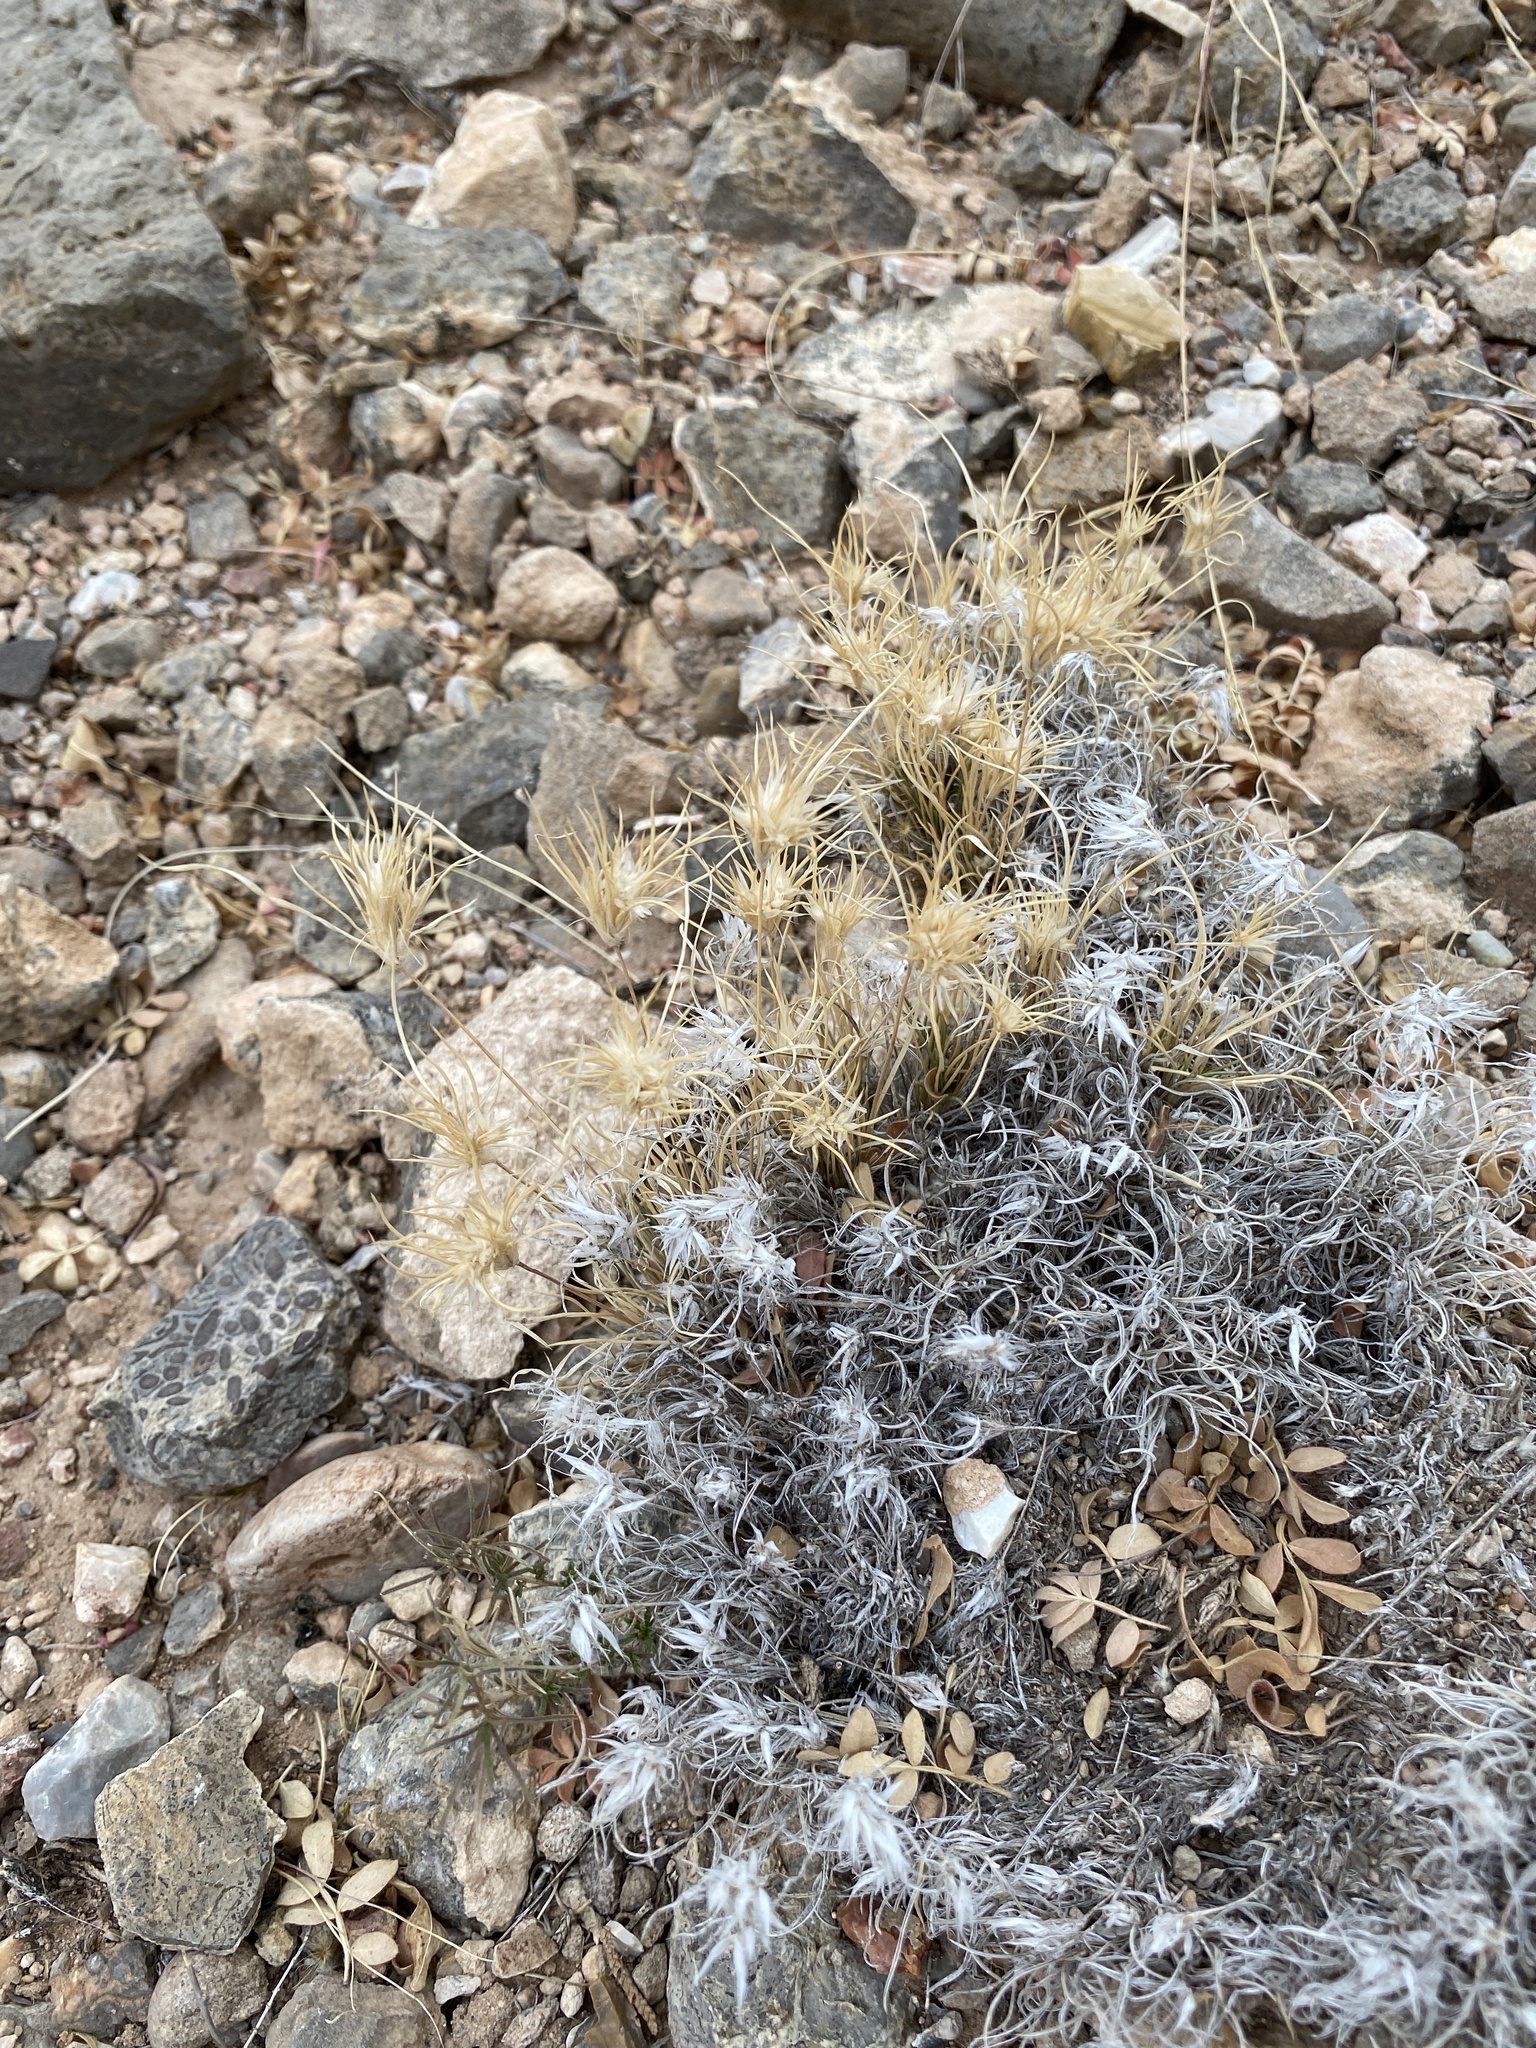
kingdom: Plantae
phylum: Tracheophyta
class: Liliopsida
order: Poales
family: Poaceae
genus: Dasyochloa
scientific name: Dasyochloa pulchella
